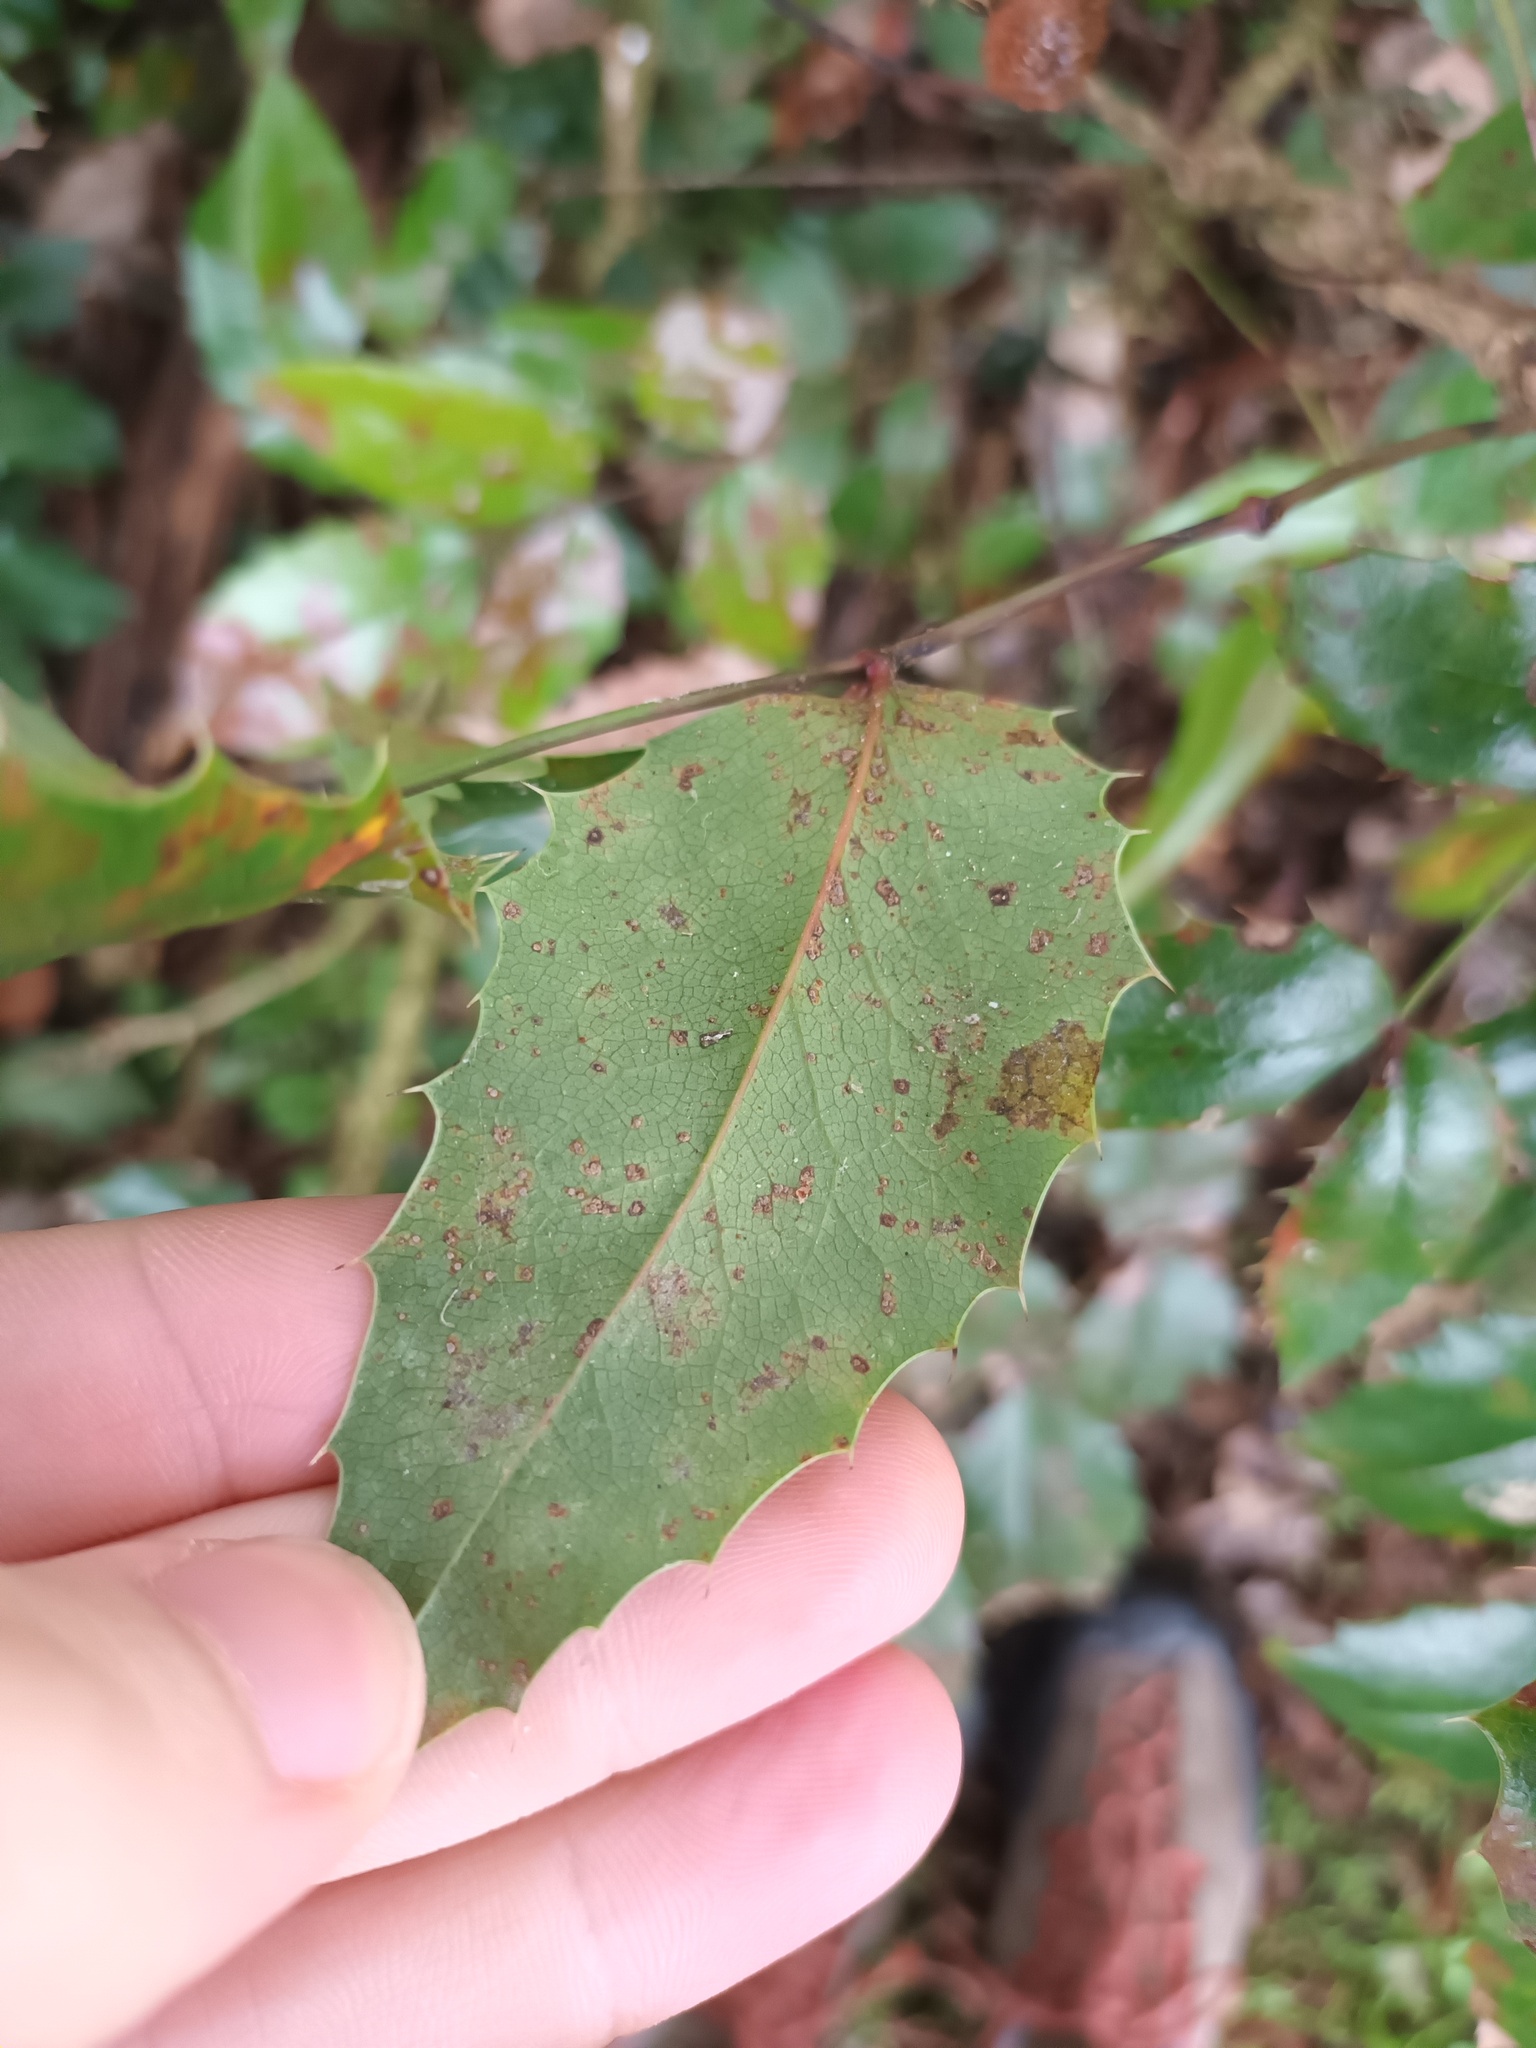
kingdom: Fungi
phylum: Basidiomycota
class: Pucciniomycetes
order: Pucciniales
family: Pucciniaceae
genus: Cumminsiella
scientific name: Cumminsiella mirabilissima
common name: Mahonia rust
